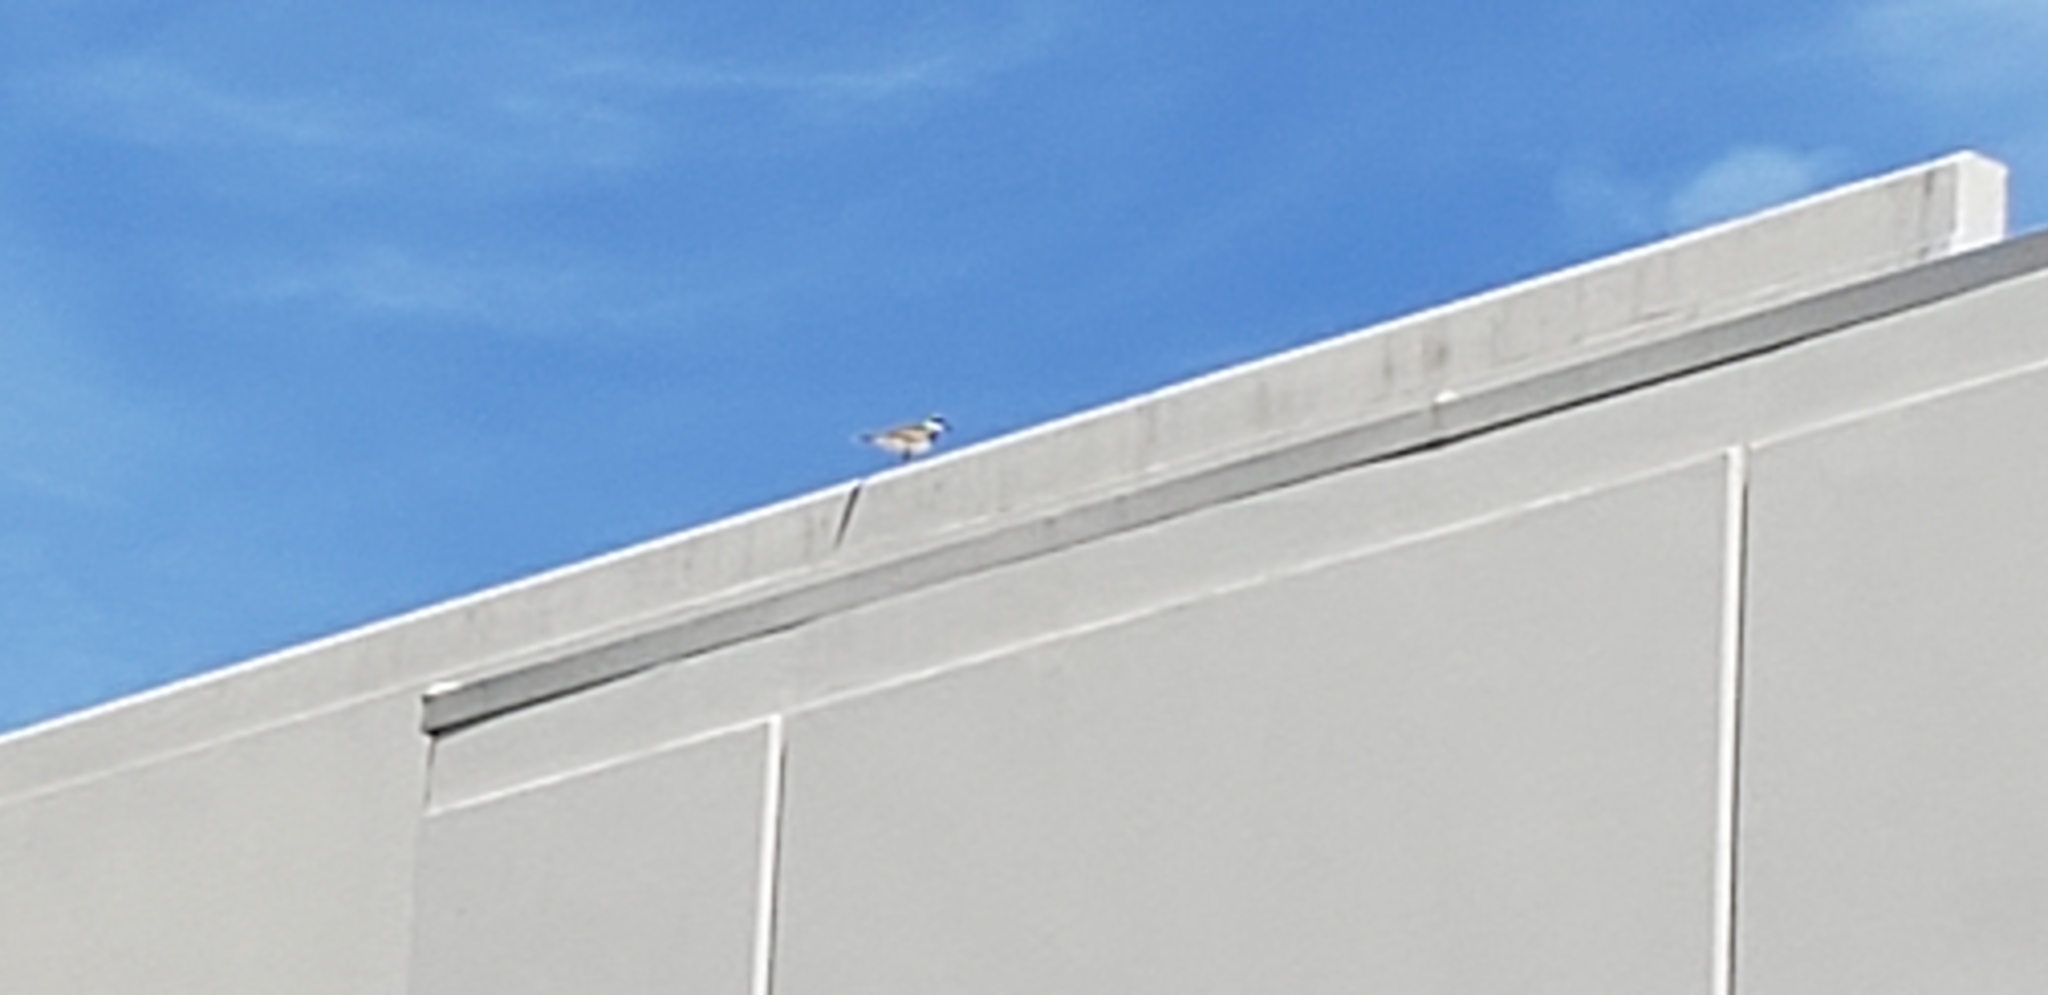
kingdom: Animalia
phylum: Chordata
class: Aves
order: Charadriiformes
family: Charadriidae
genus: Charadrius
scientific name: Charadrius vociferus
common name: Killdeer
